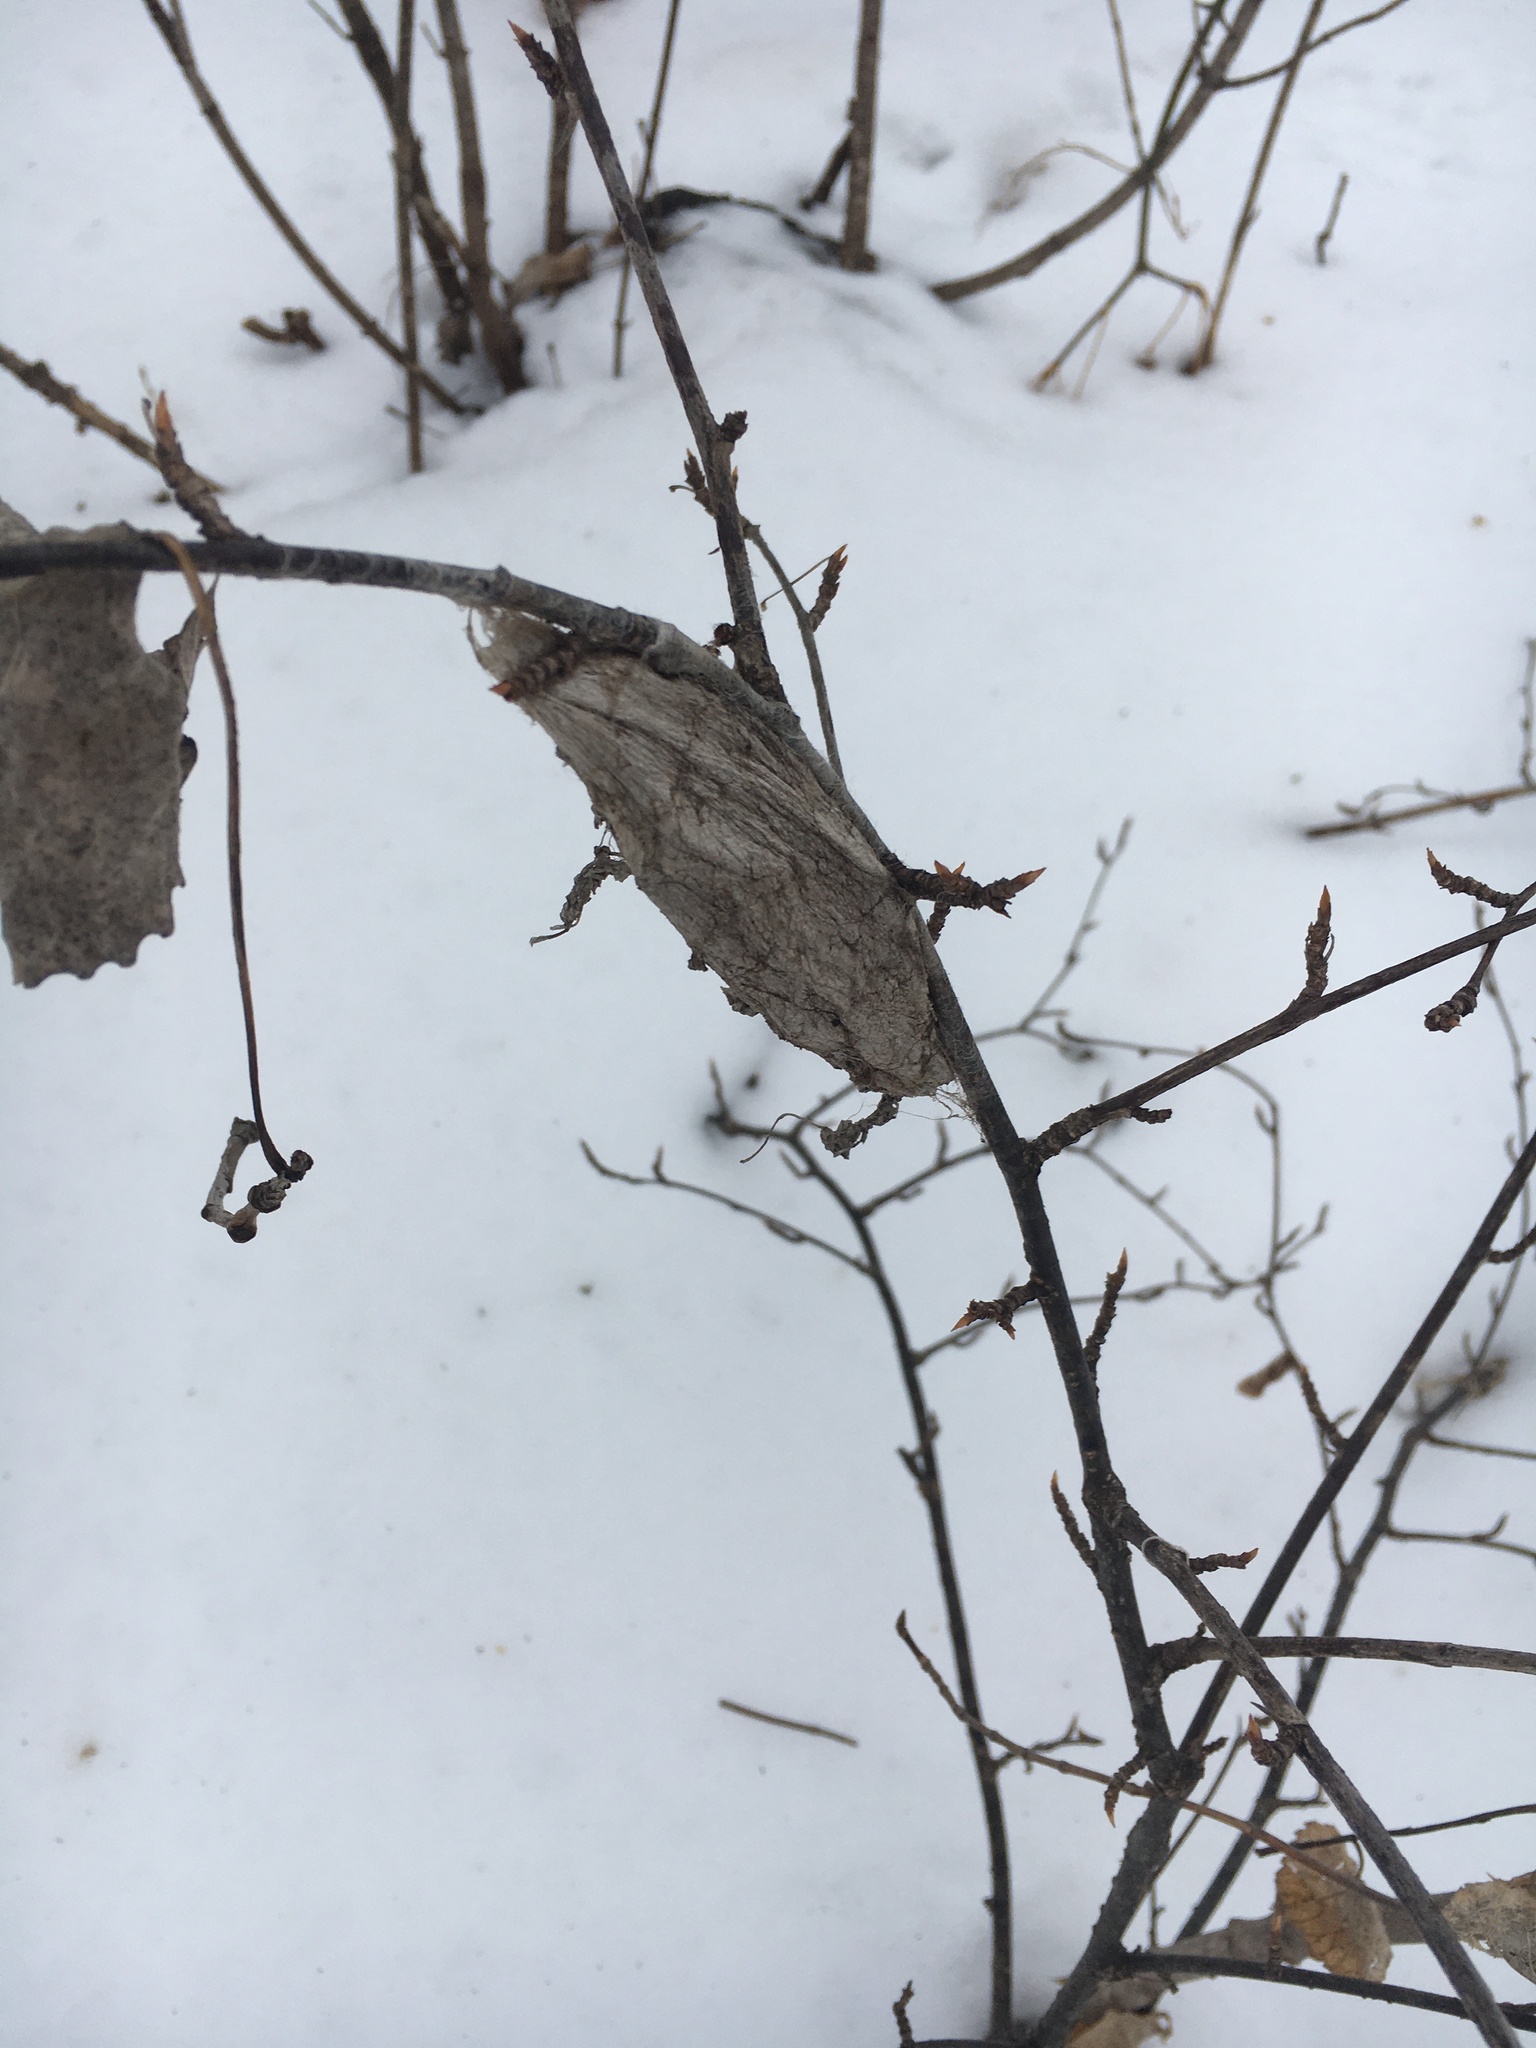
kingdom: Animalia
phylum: Arthropoda
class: Insecta
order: Lepidoptera
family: Saturniidae
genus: Hyalophora
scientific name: Hyalophora cecropia
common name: Cecropia silkmoth
